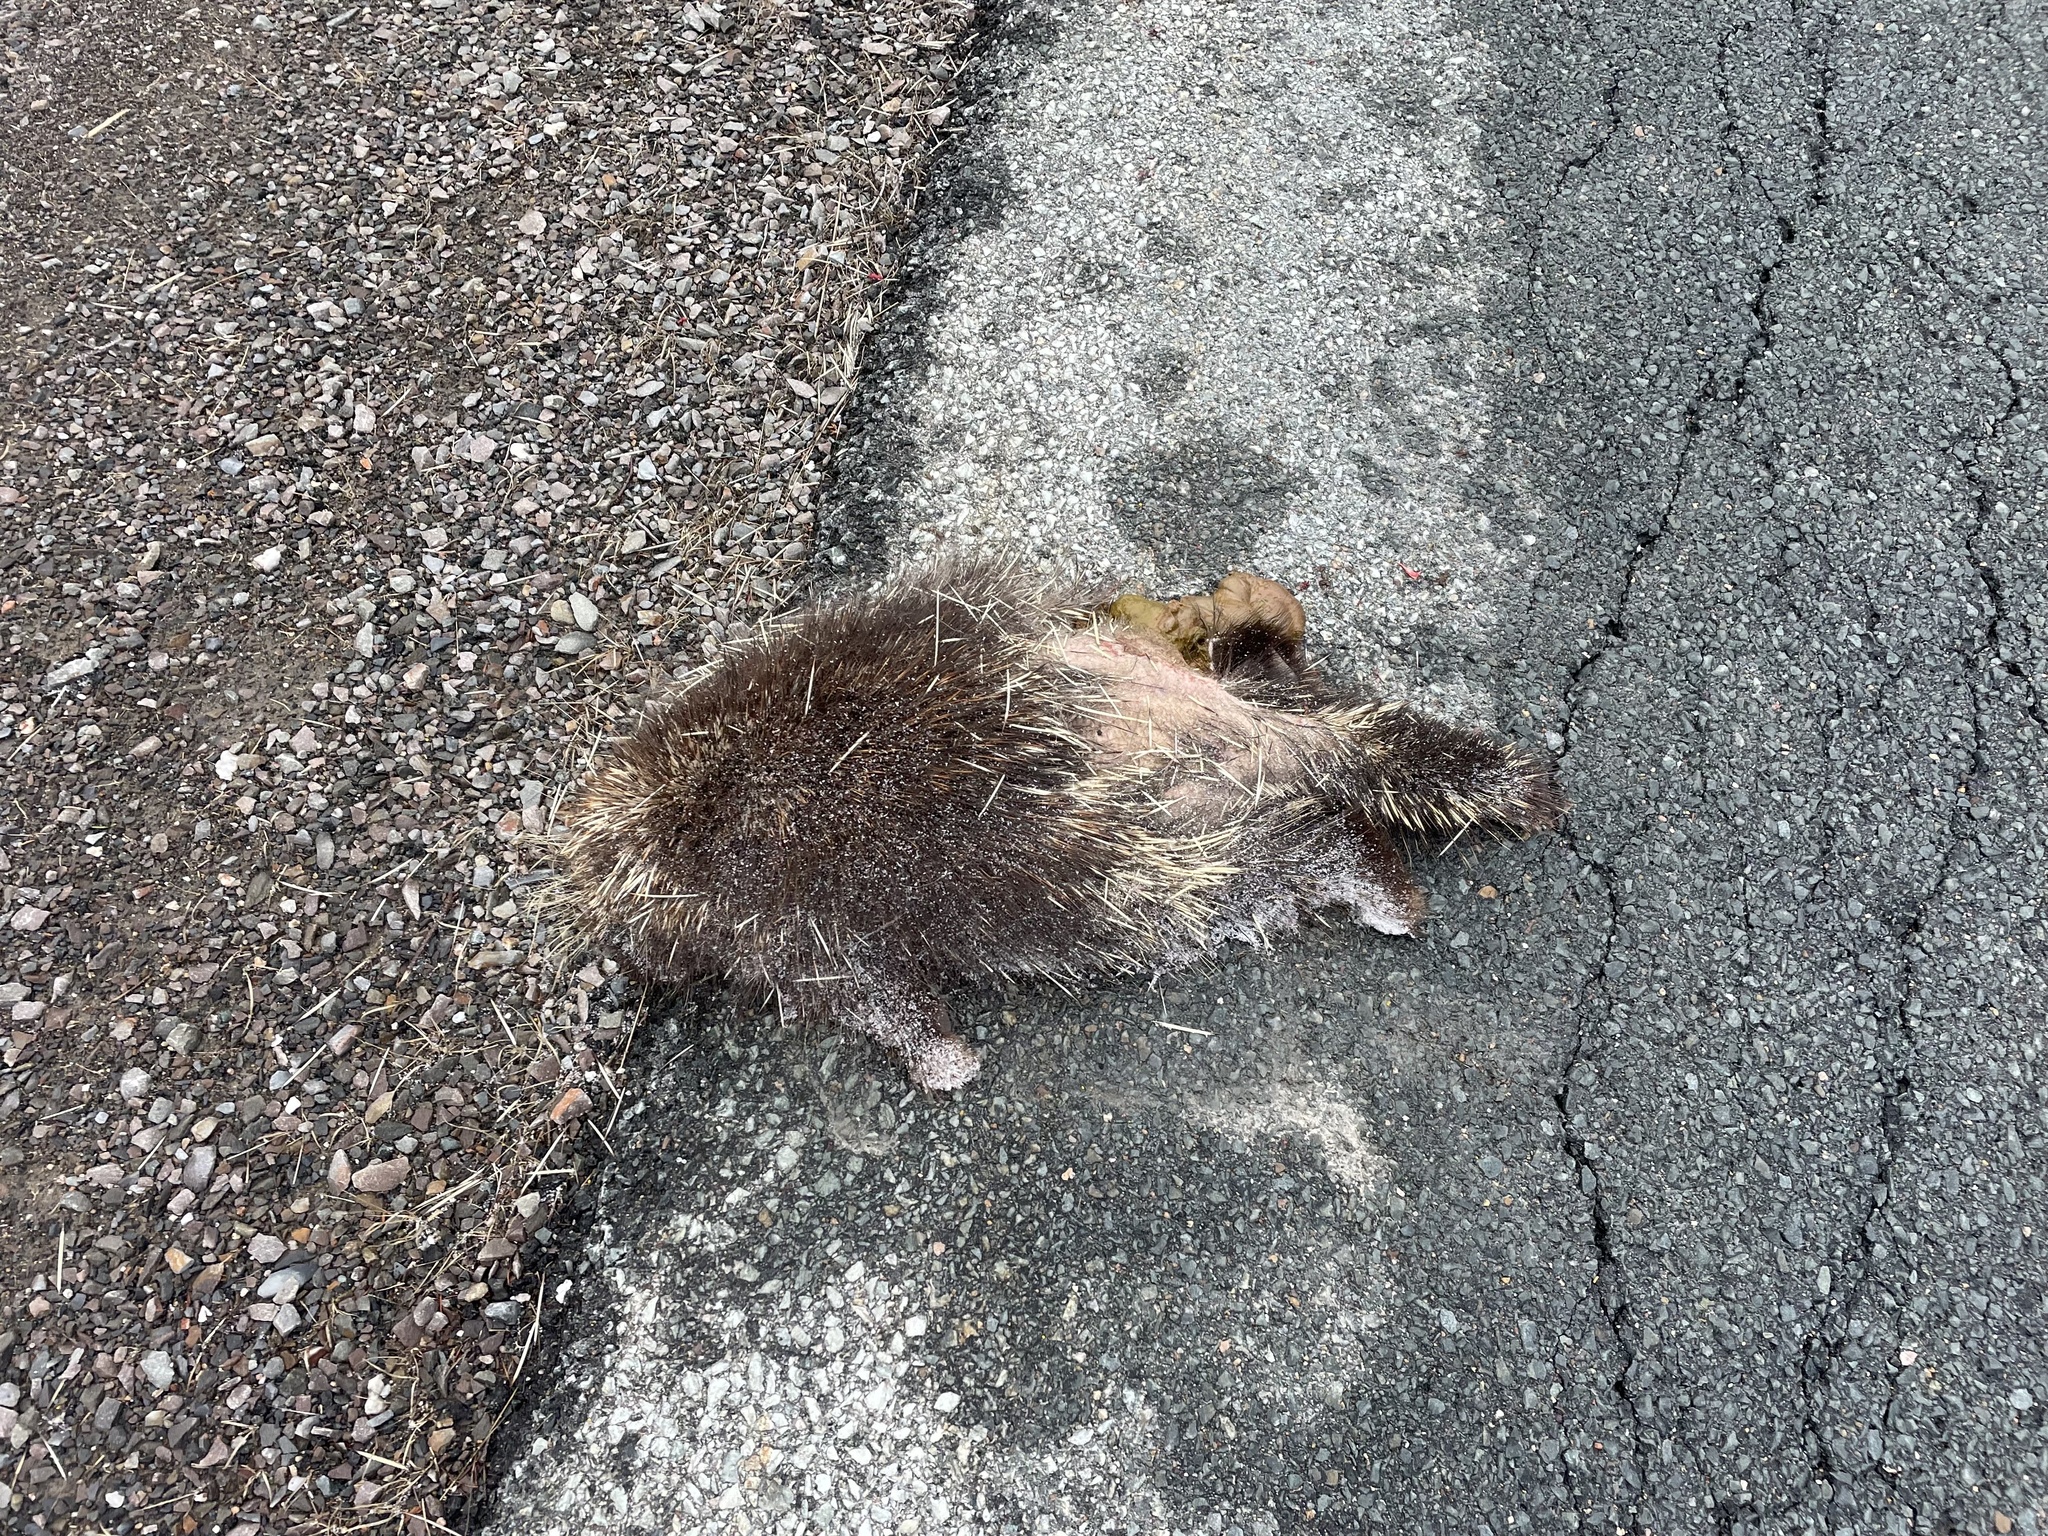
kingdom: Animalia
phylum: Chordata
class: Mammalia
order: Rodentia
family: Erethizontidae
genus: Erethizon
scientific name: Erethizon dorsatus
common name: North american porcupine
